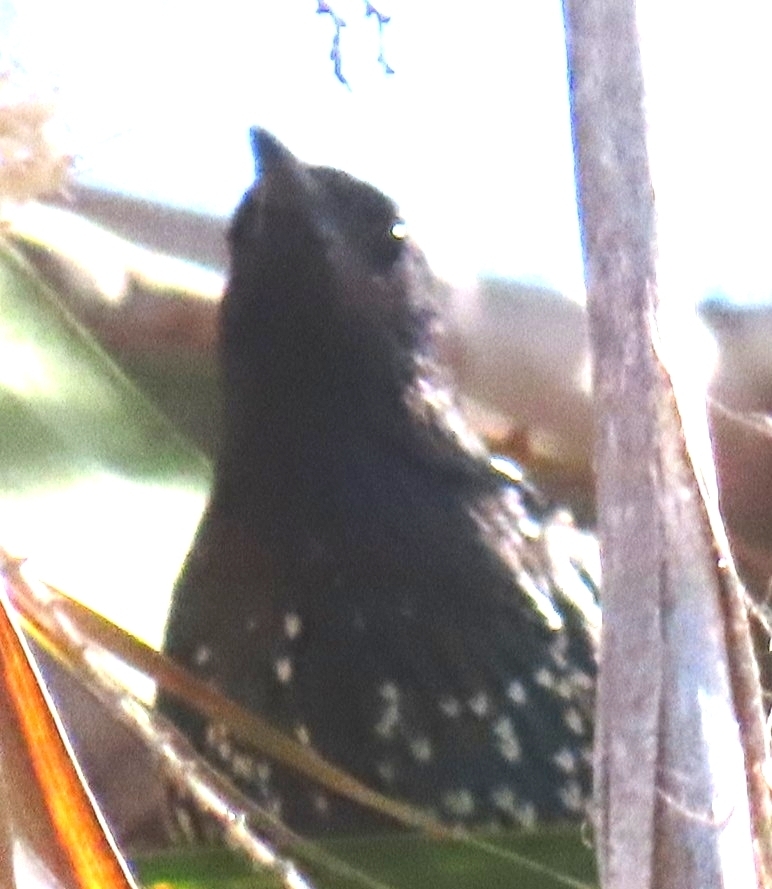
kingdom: Animalia
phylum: Chordata
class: Aves
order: Passeriformes
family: Sturnidae
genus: Sturnus
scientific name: Sturnus vulgaris
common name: Common starling
